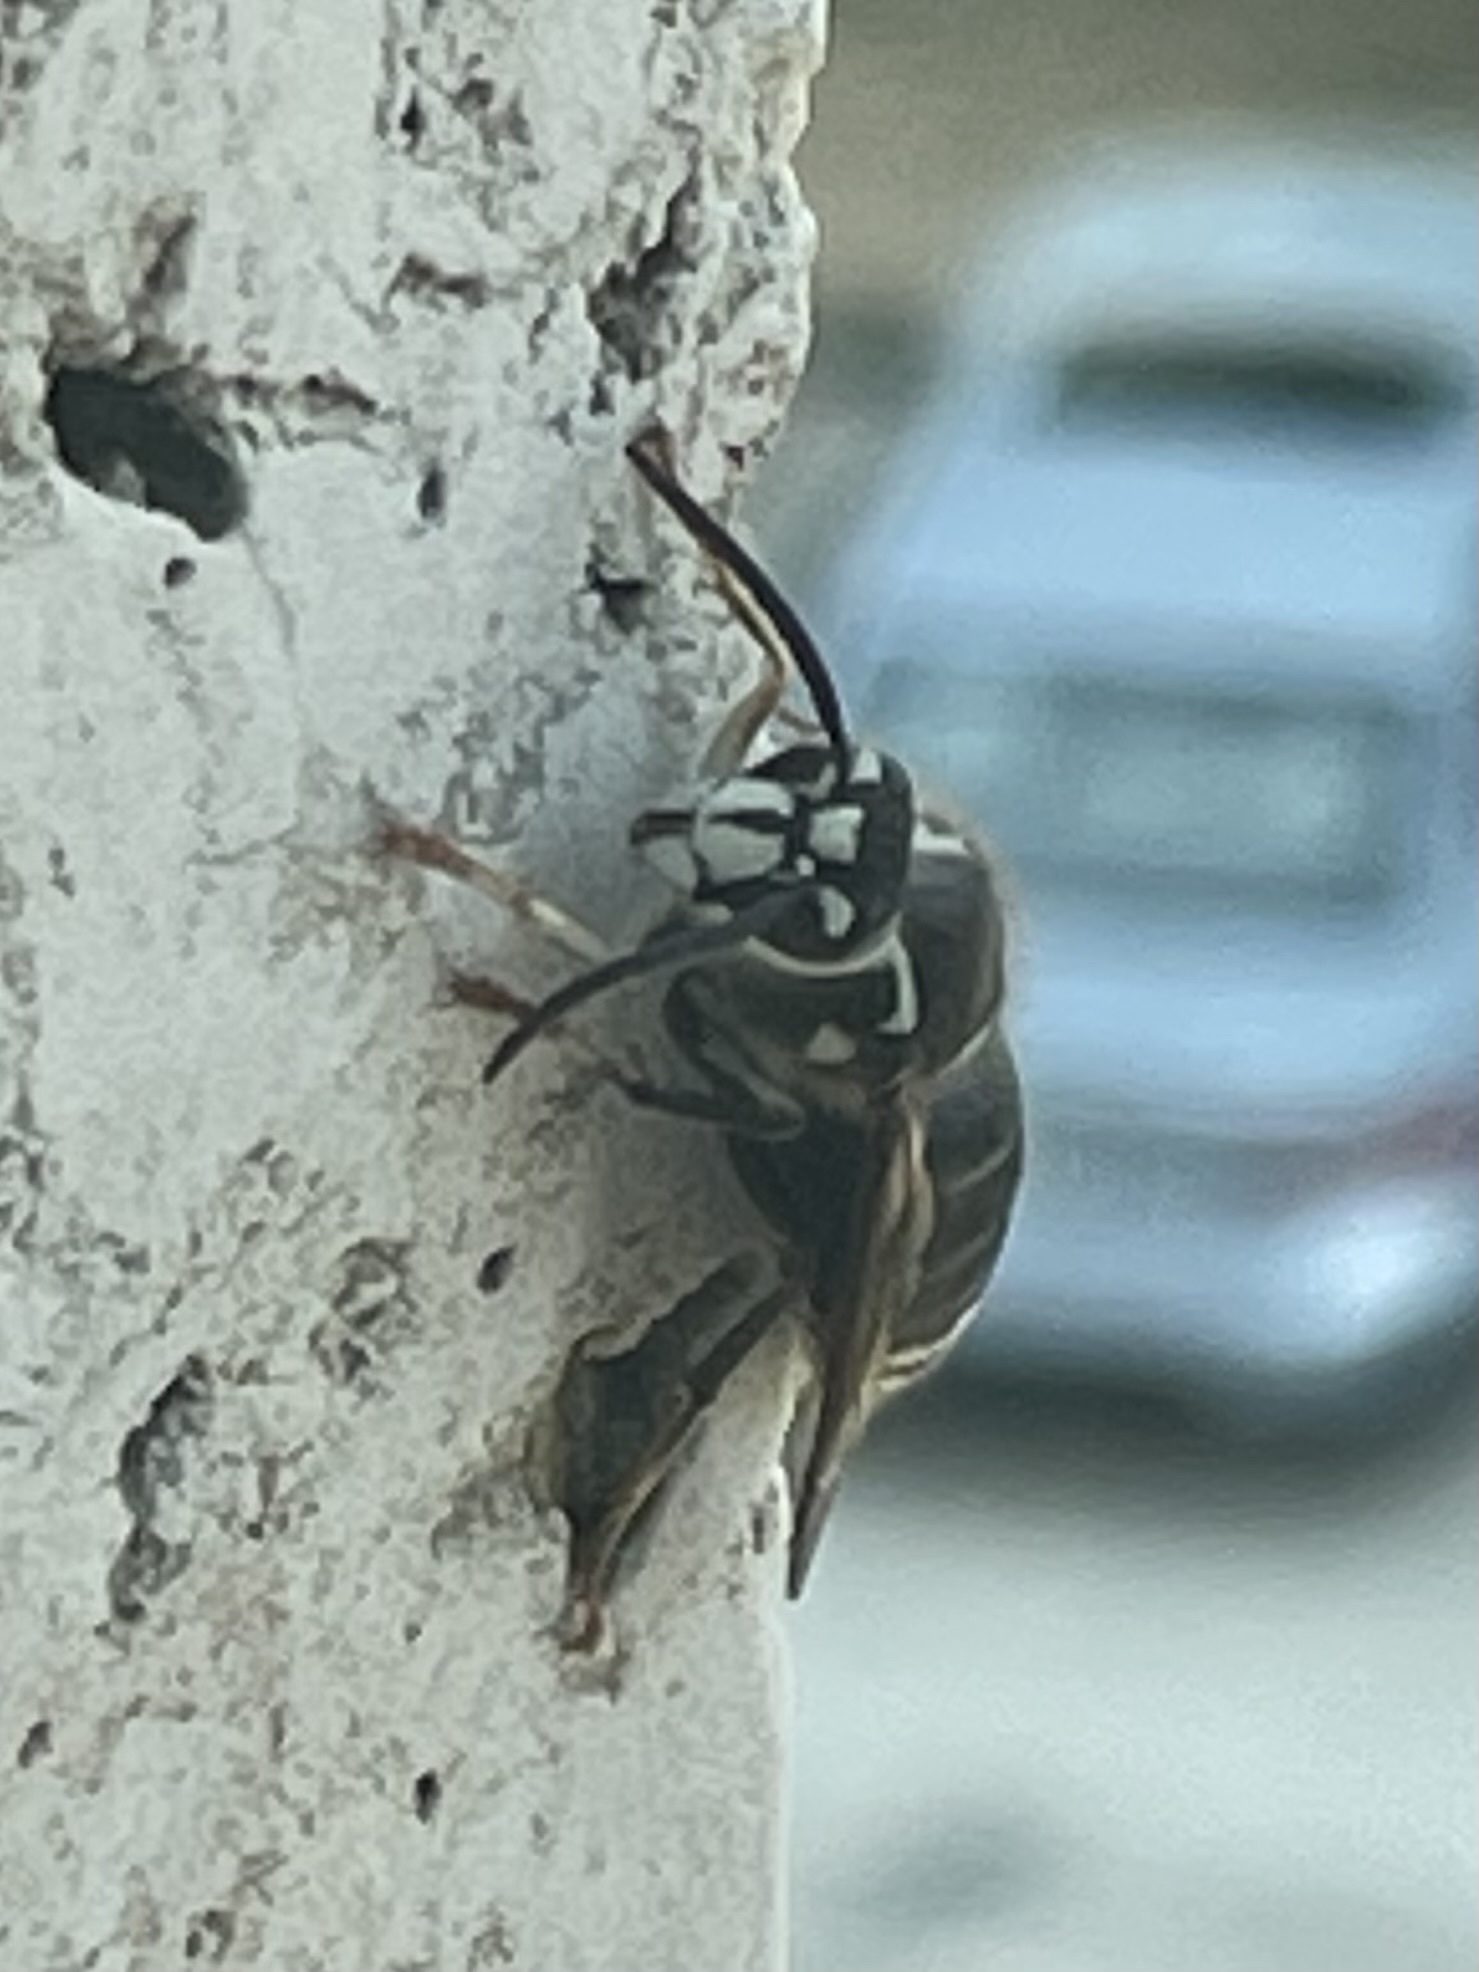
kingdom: Animalia
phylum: Arthropoda
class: Insecta
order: Hymenoptera
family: Vespidae
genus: Dolichovespula
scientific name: Dolichovespula maculata
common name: Bald-faced hornet
